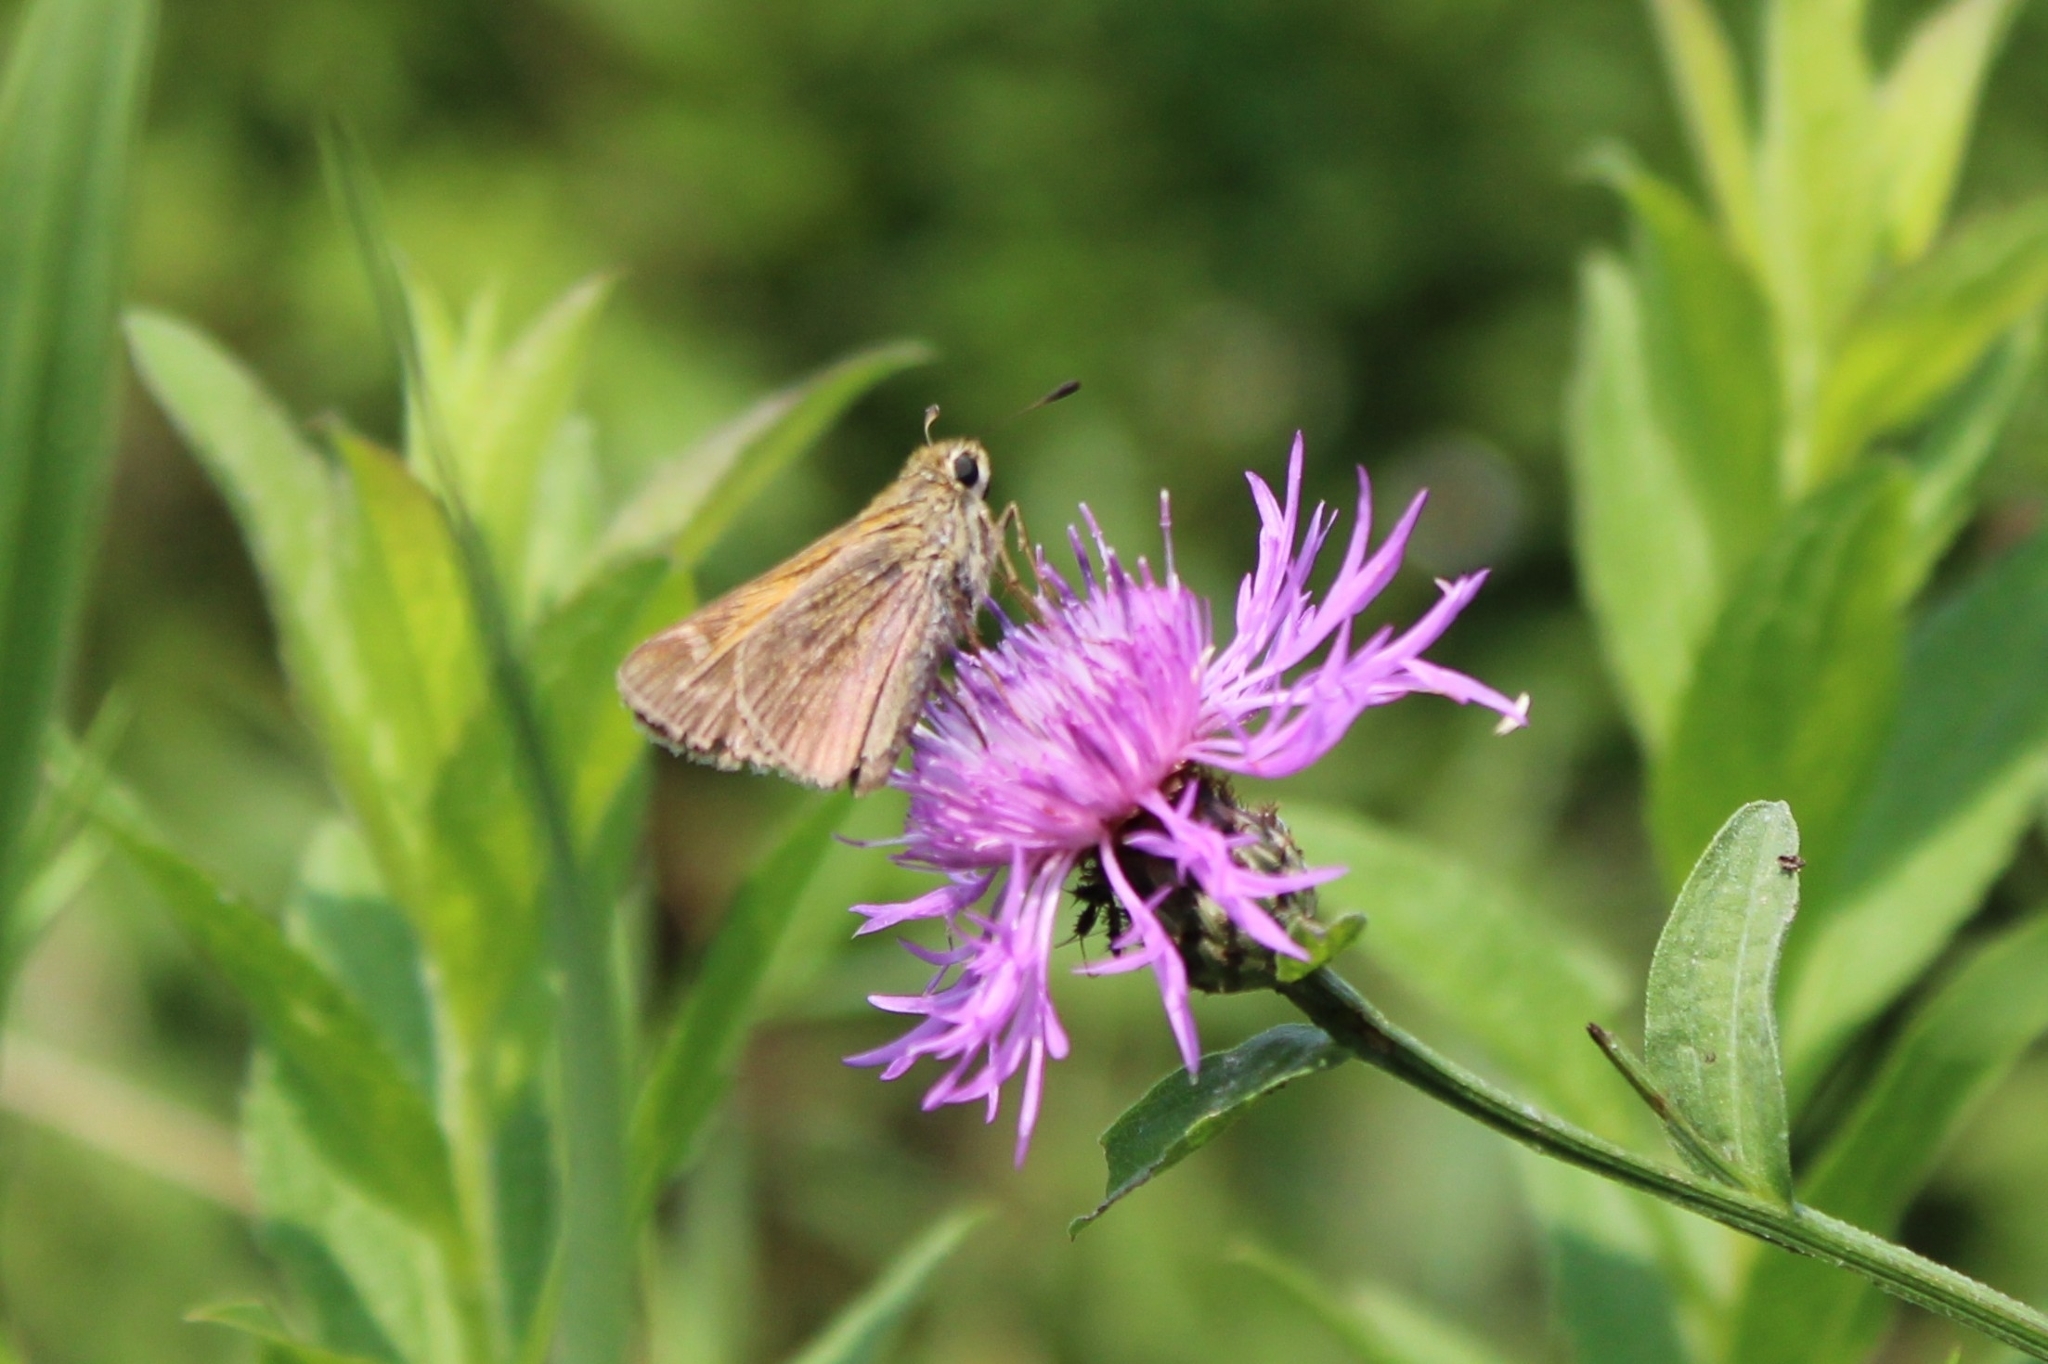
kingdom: Animalia
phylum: Arthropoda
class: Insecta
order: Lepidoptera
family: Hesperiidae
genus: Atalopedes
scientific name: Atalopedes
